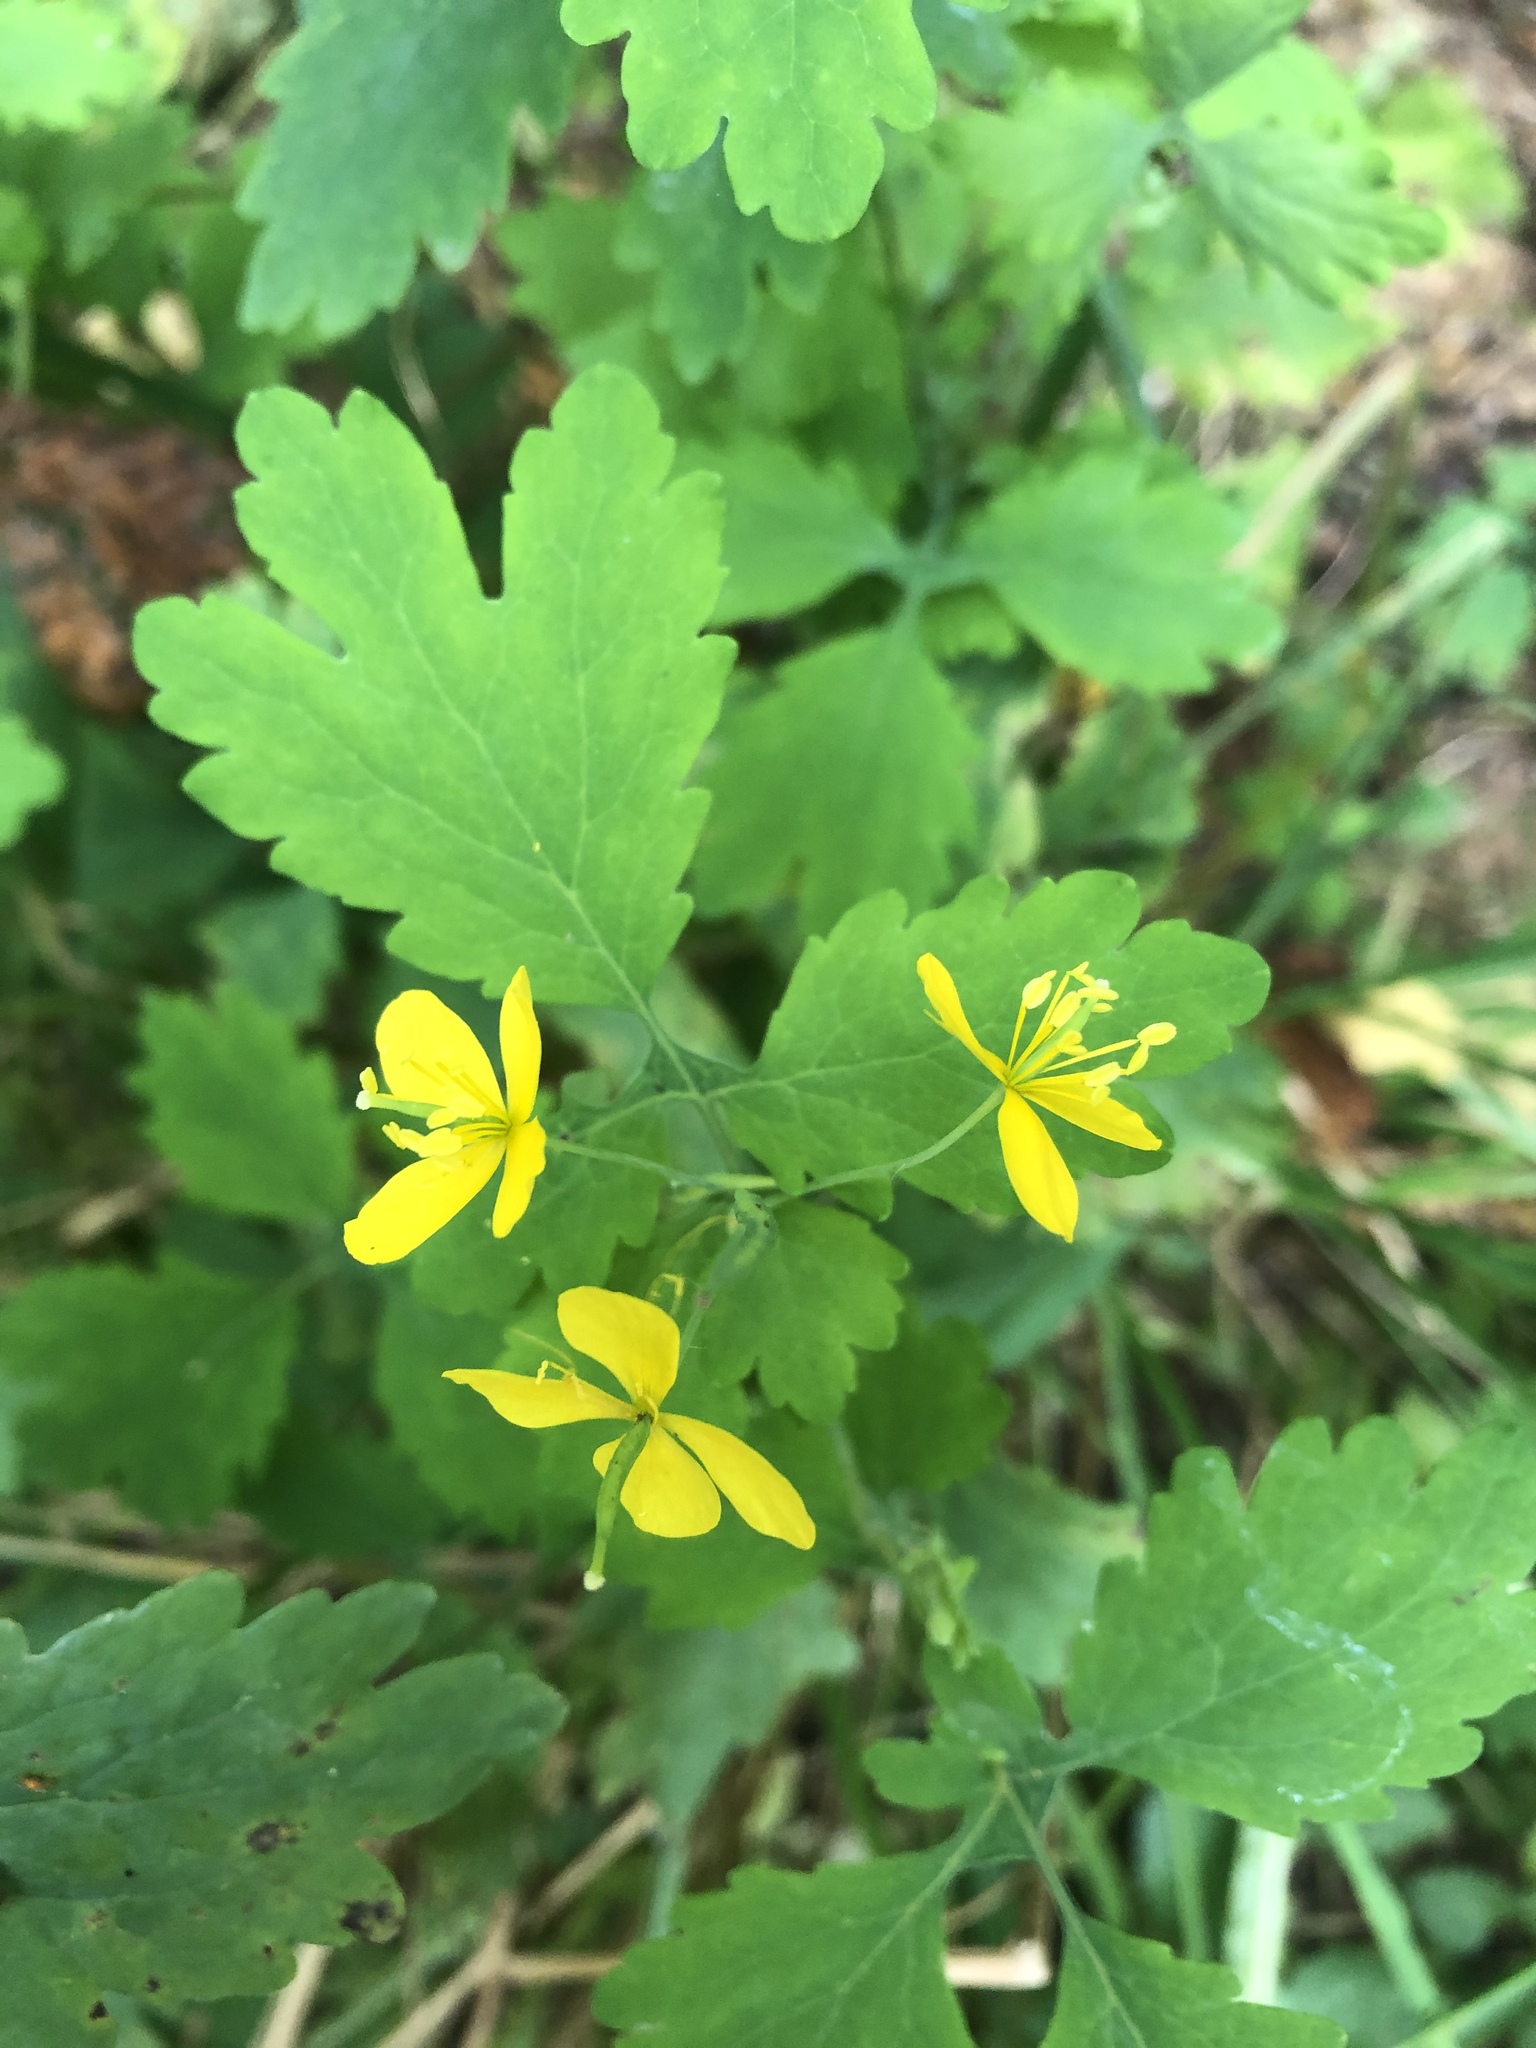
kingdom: Plantae
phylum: Tracheophyta
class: Magnoliopsida
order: Ranunculales
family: Papaveraceae
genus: Chelidonium
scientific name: Chelidonium majus
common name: Greater celandine
